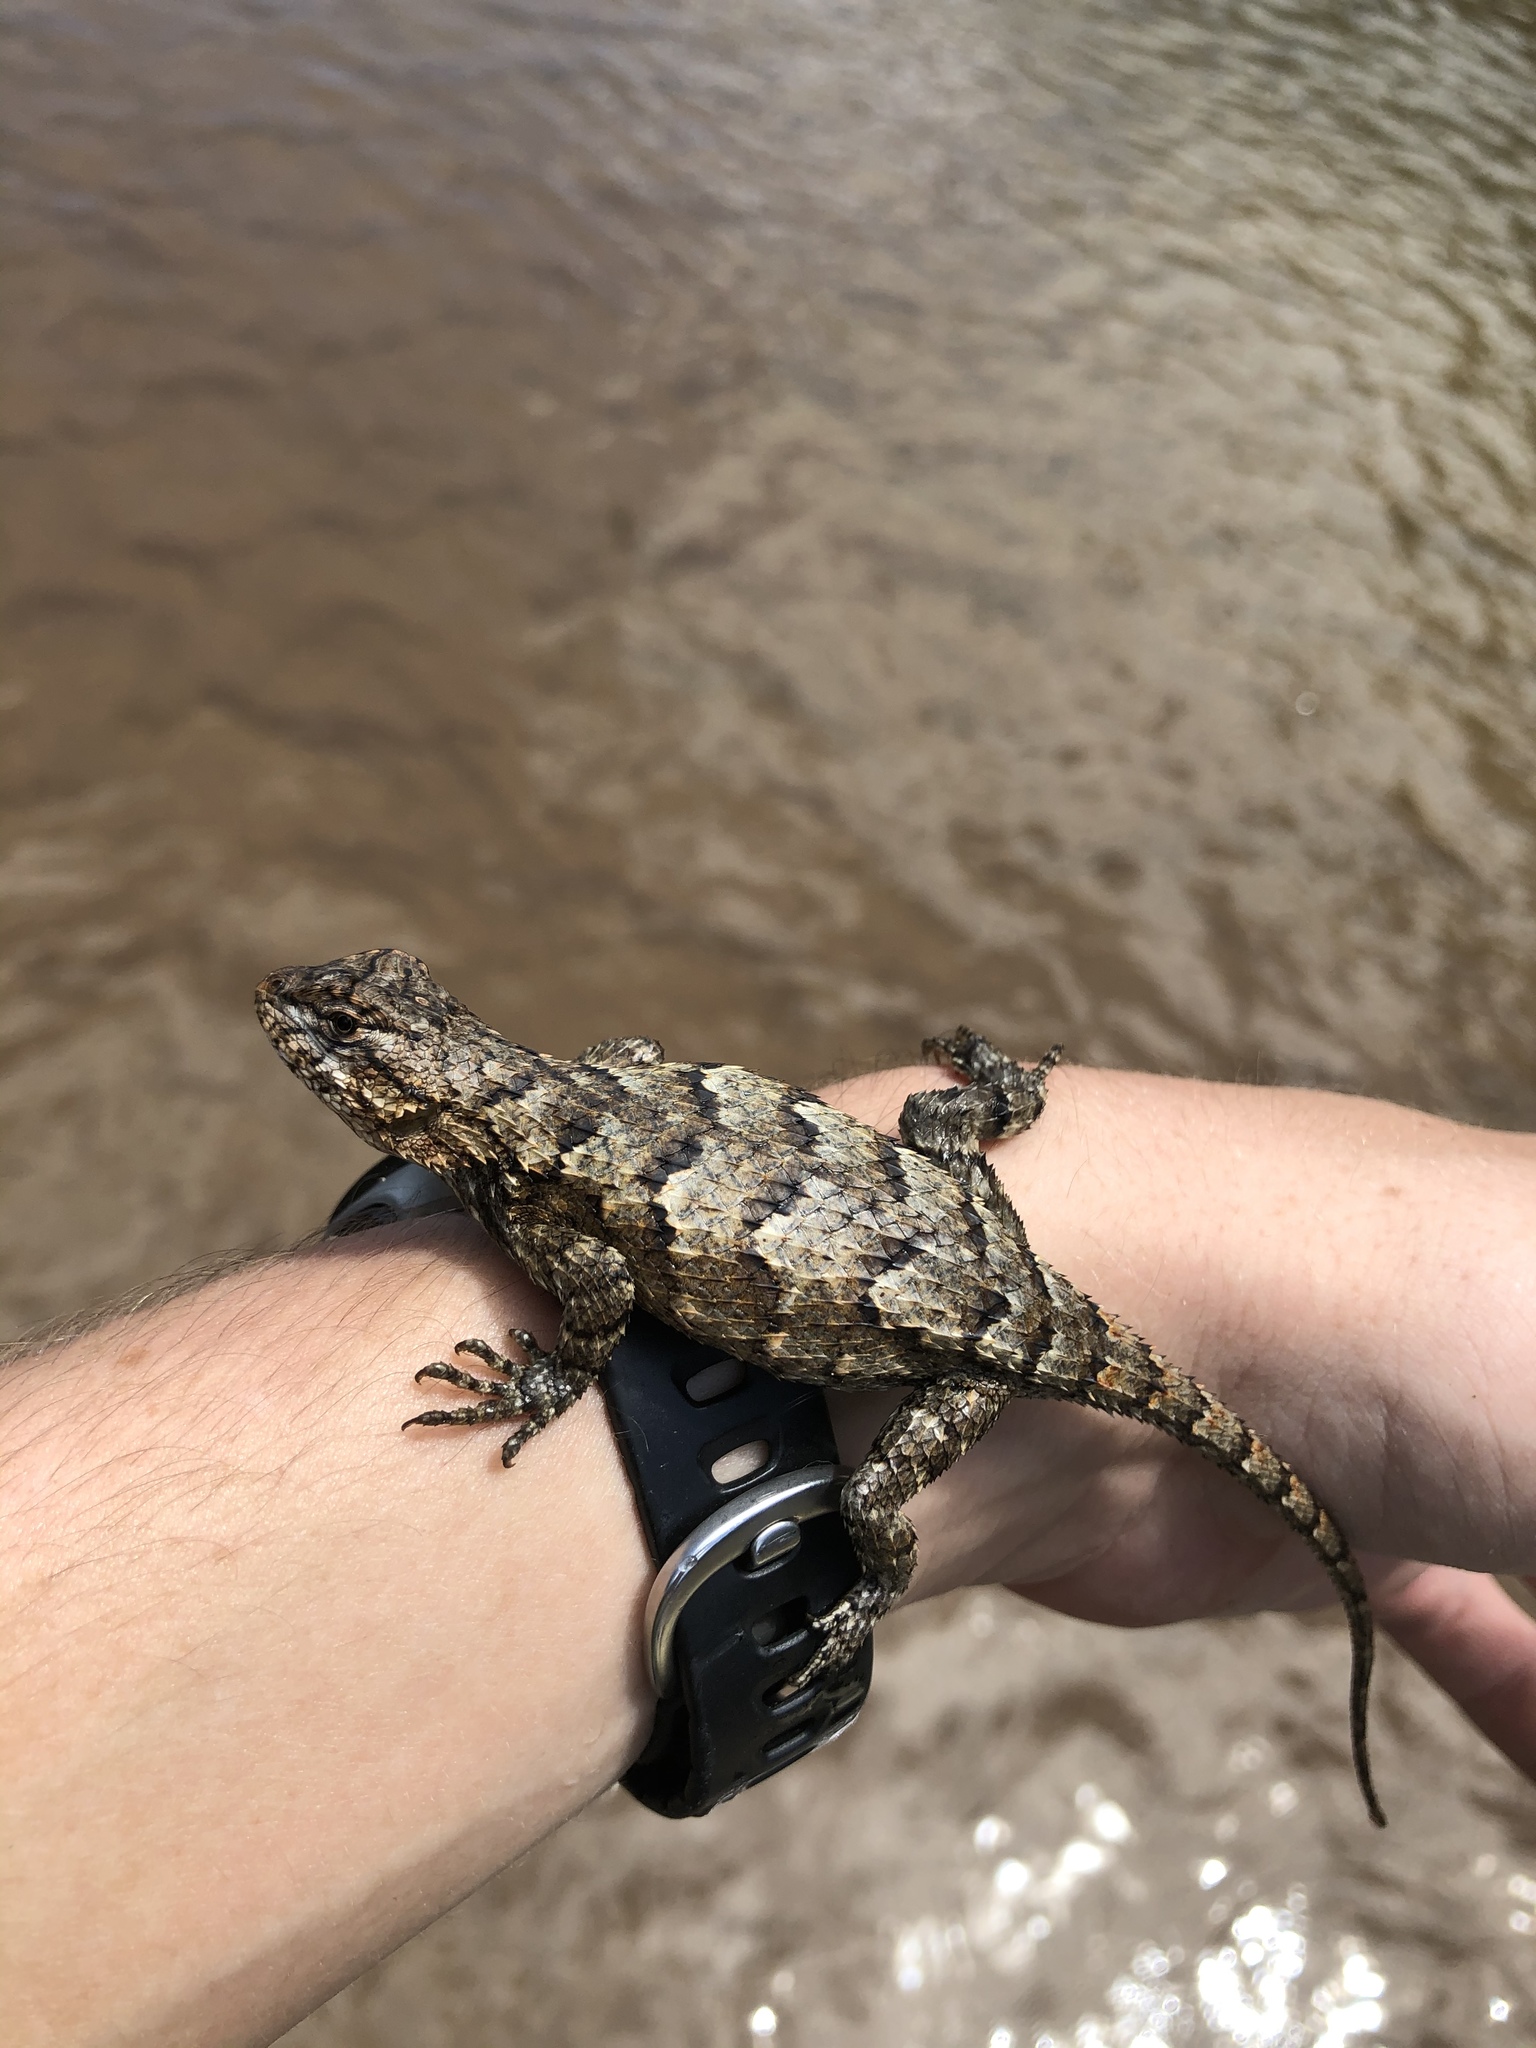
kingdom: Animalia
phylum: Chordata
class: Squamata
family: Phrynosomatidae
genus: Sceloporus
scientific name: Sceloporus consobrinus
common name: Southern prairie lizard
